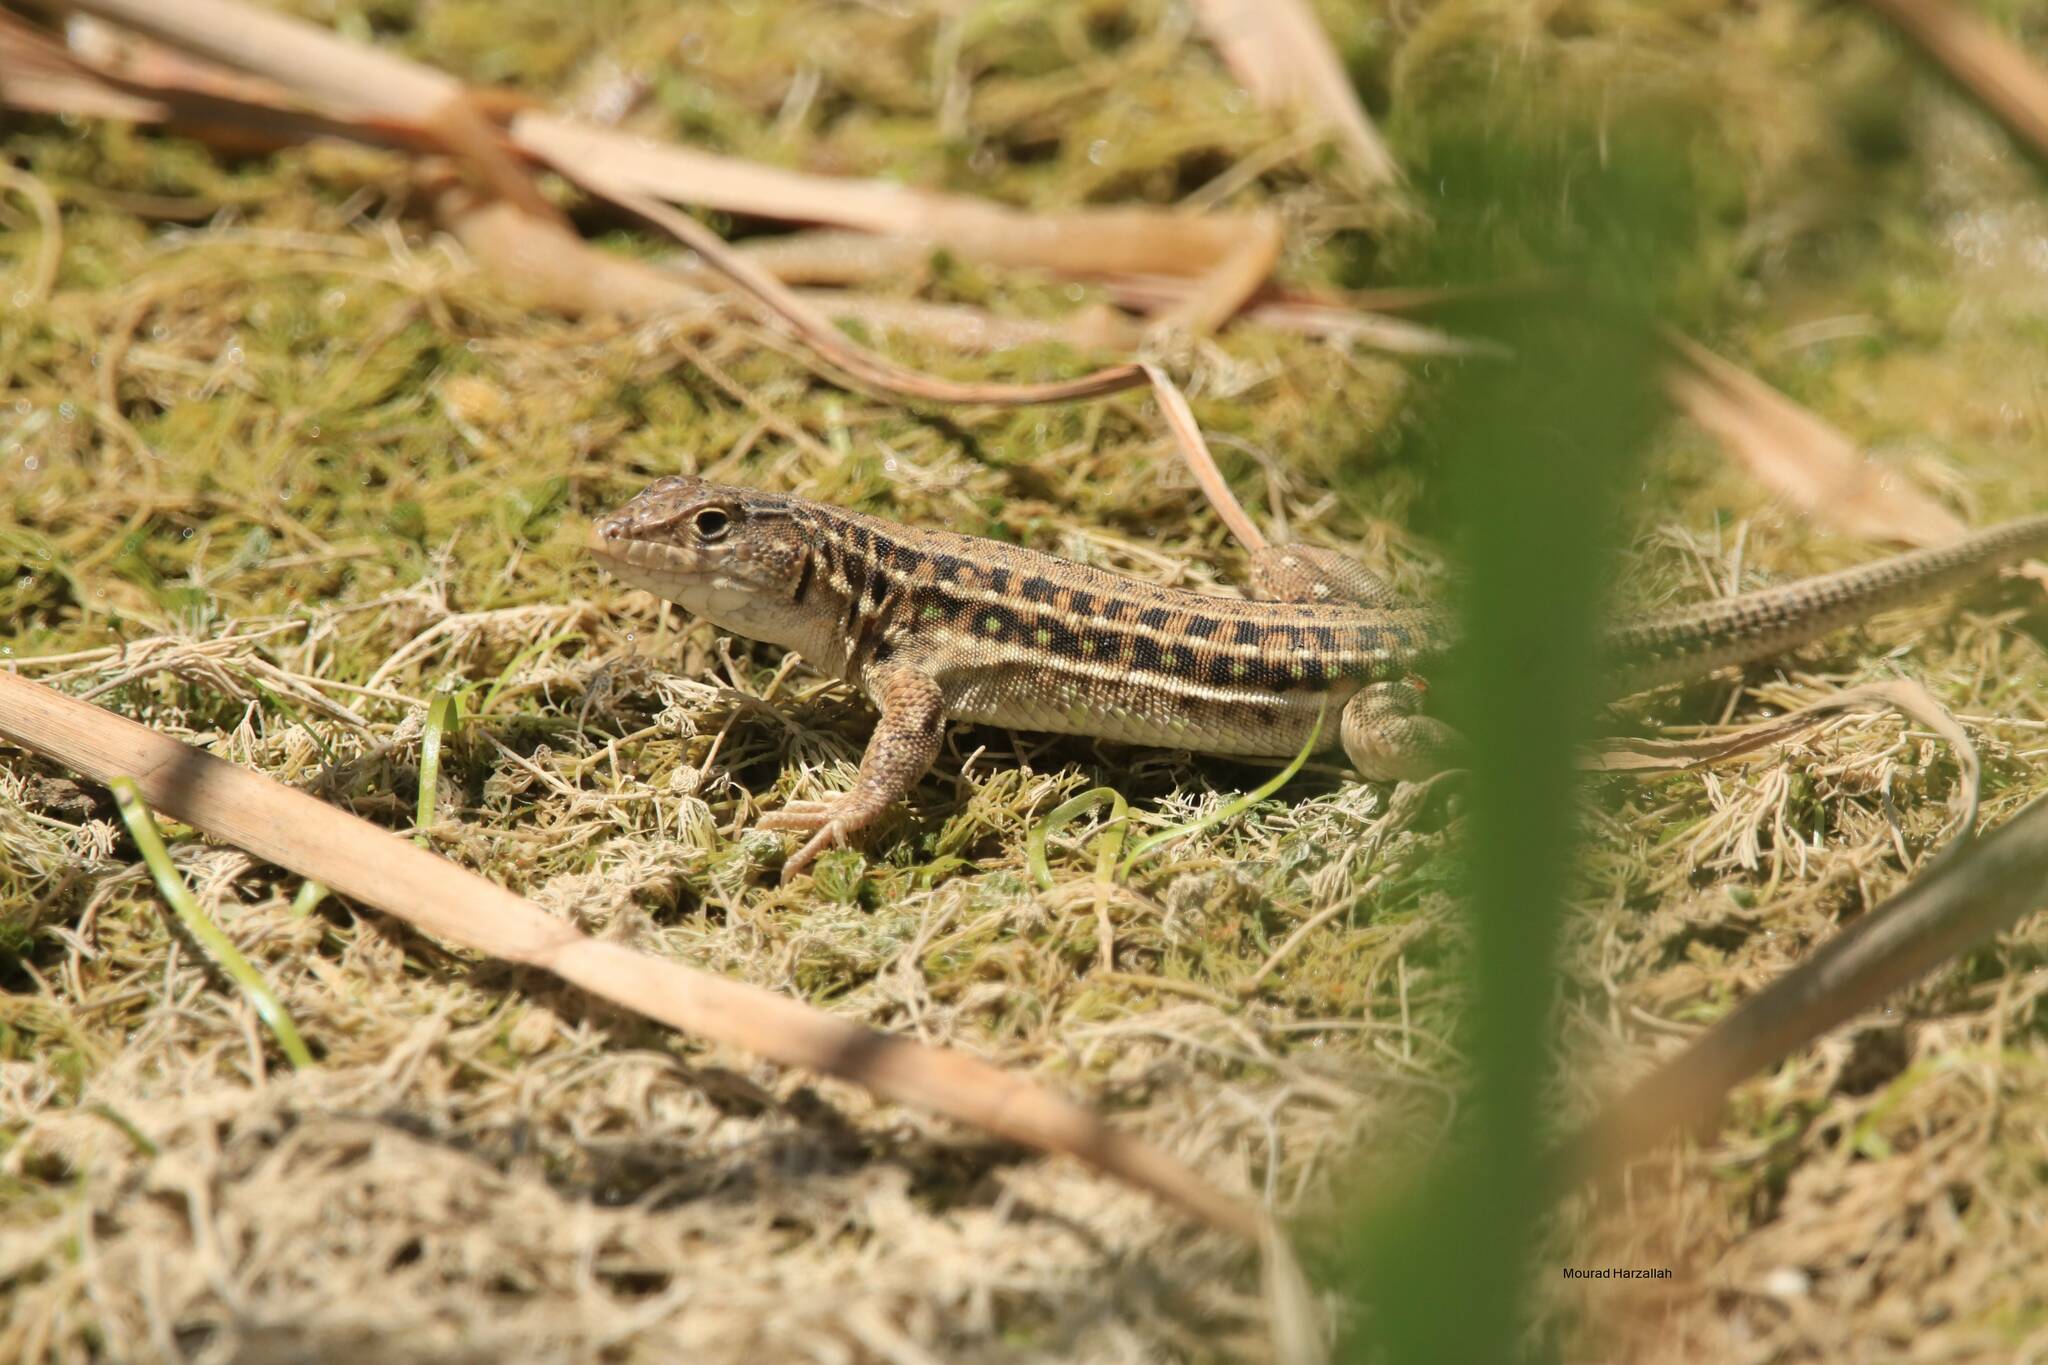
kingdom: Animalia
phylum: Chordata
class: Squamata
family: Lacertidae
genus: Acanthodactylus
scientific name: Acanthodactylus erythrurus
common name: Spiny-footed lizard
